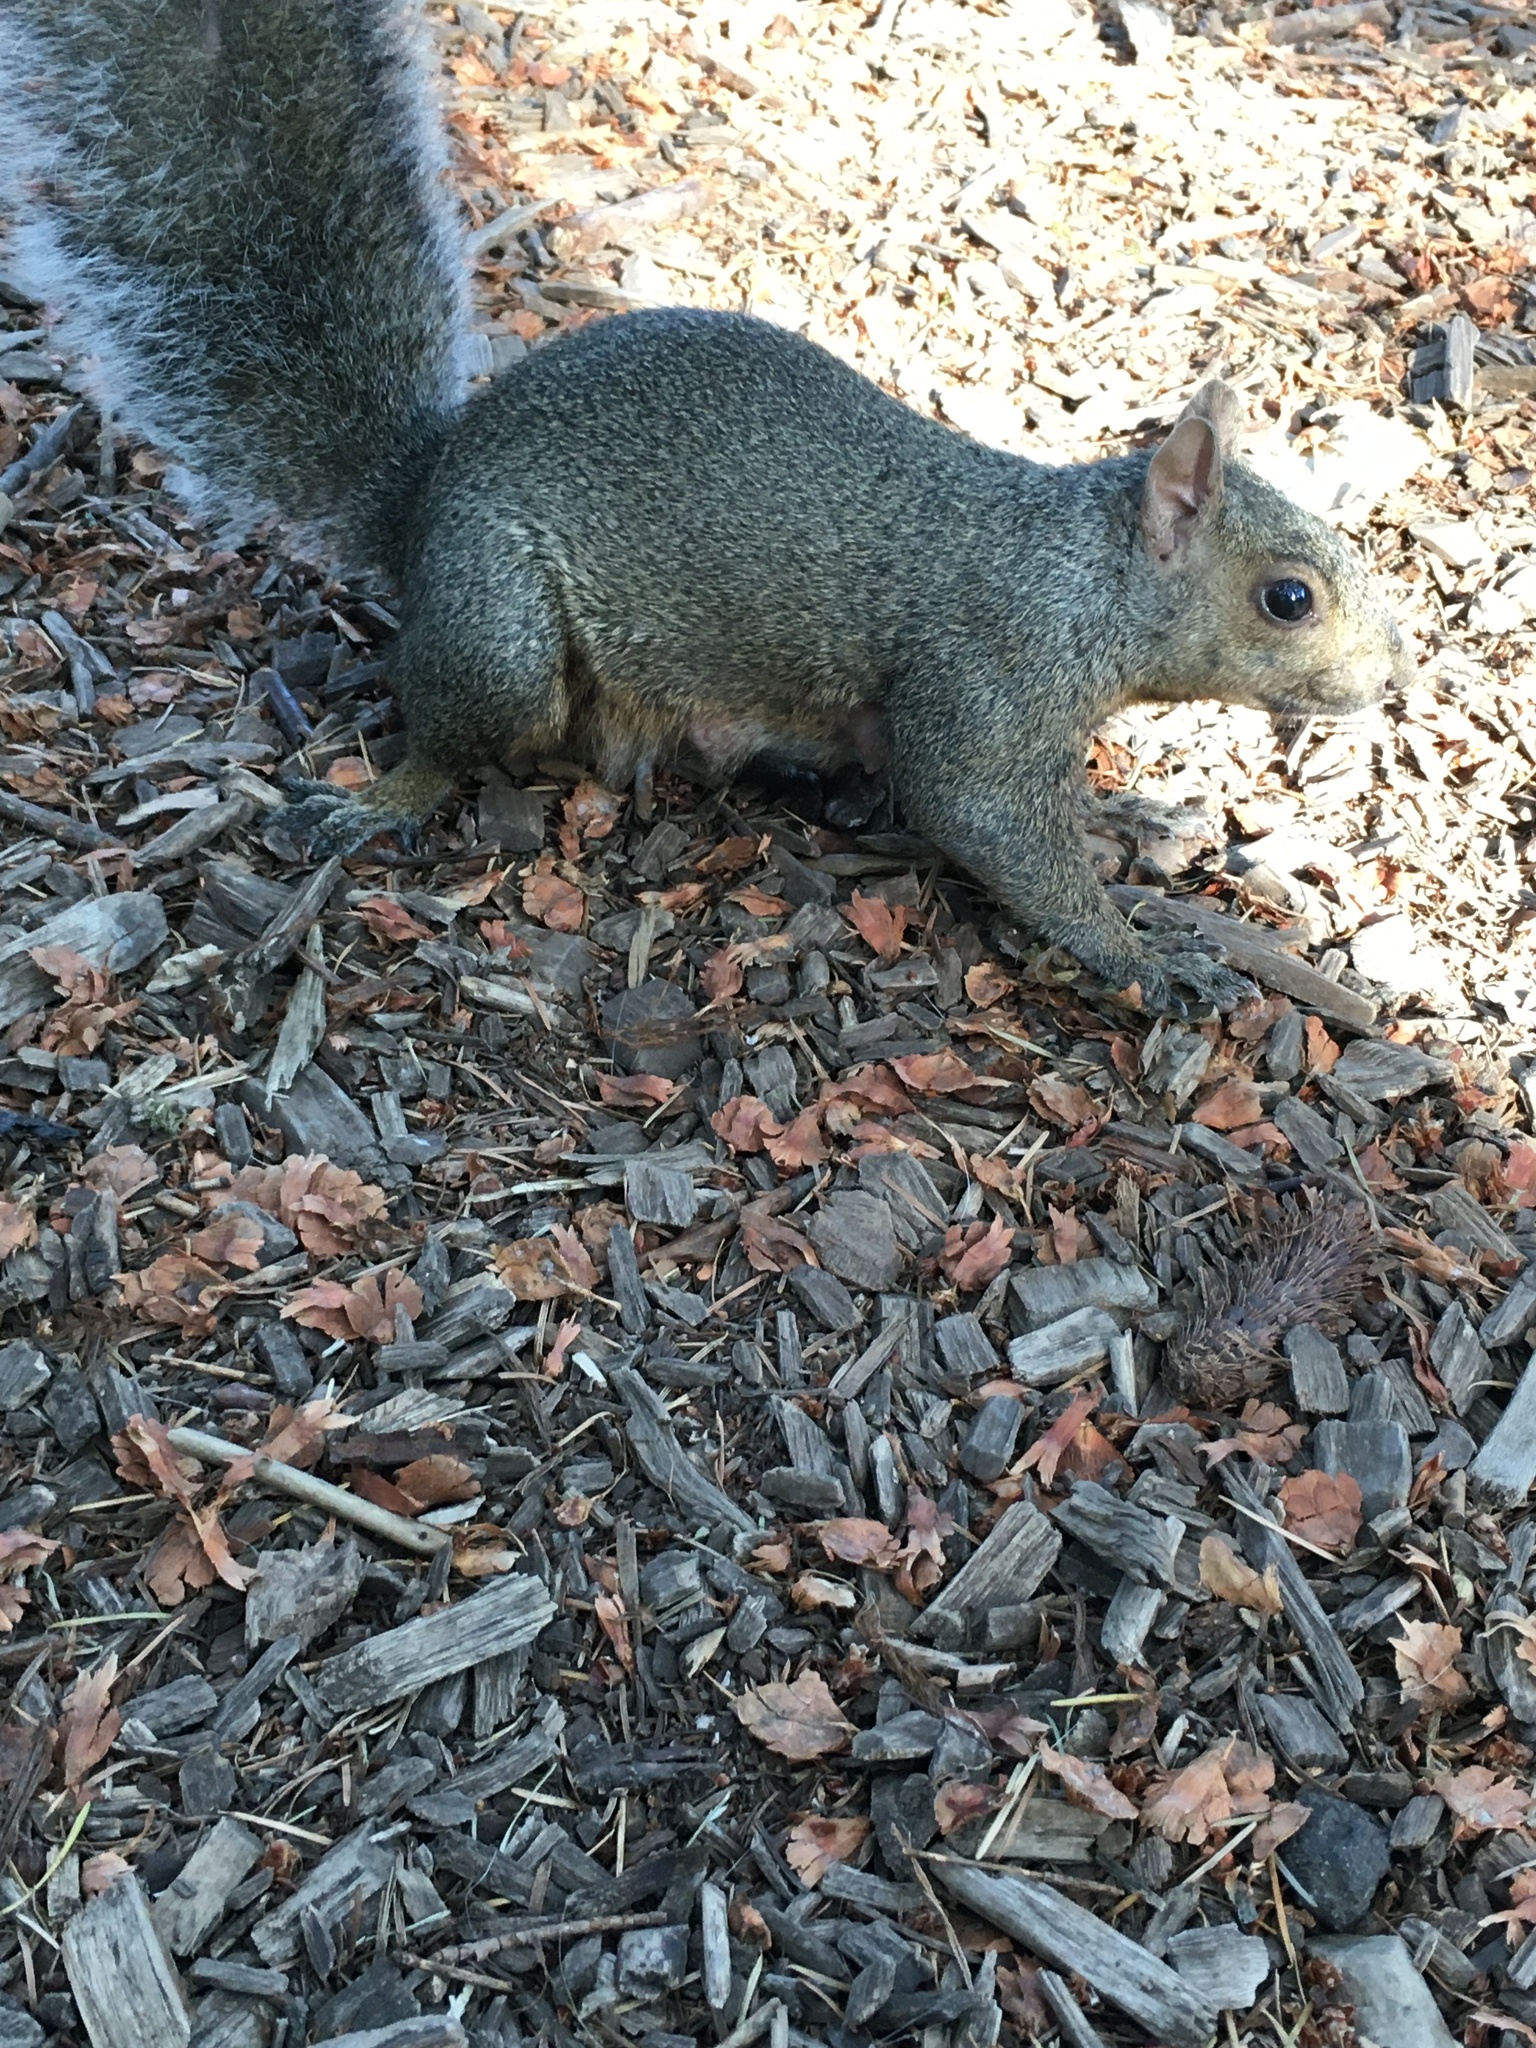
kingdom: Animalia
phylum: Chordata
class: Mammalia
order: Rodentia
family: Sciuridae
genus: Sciurus
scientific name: Sciurus carolinensis
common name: Eastern gray squirrel
